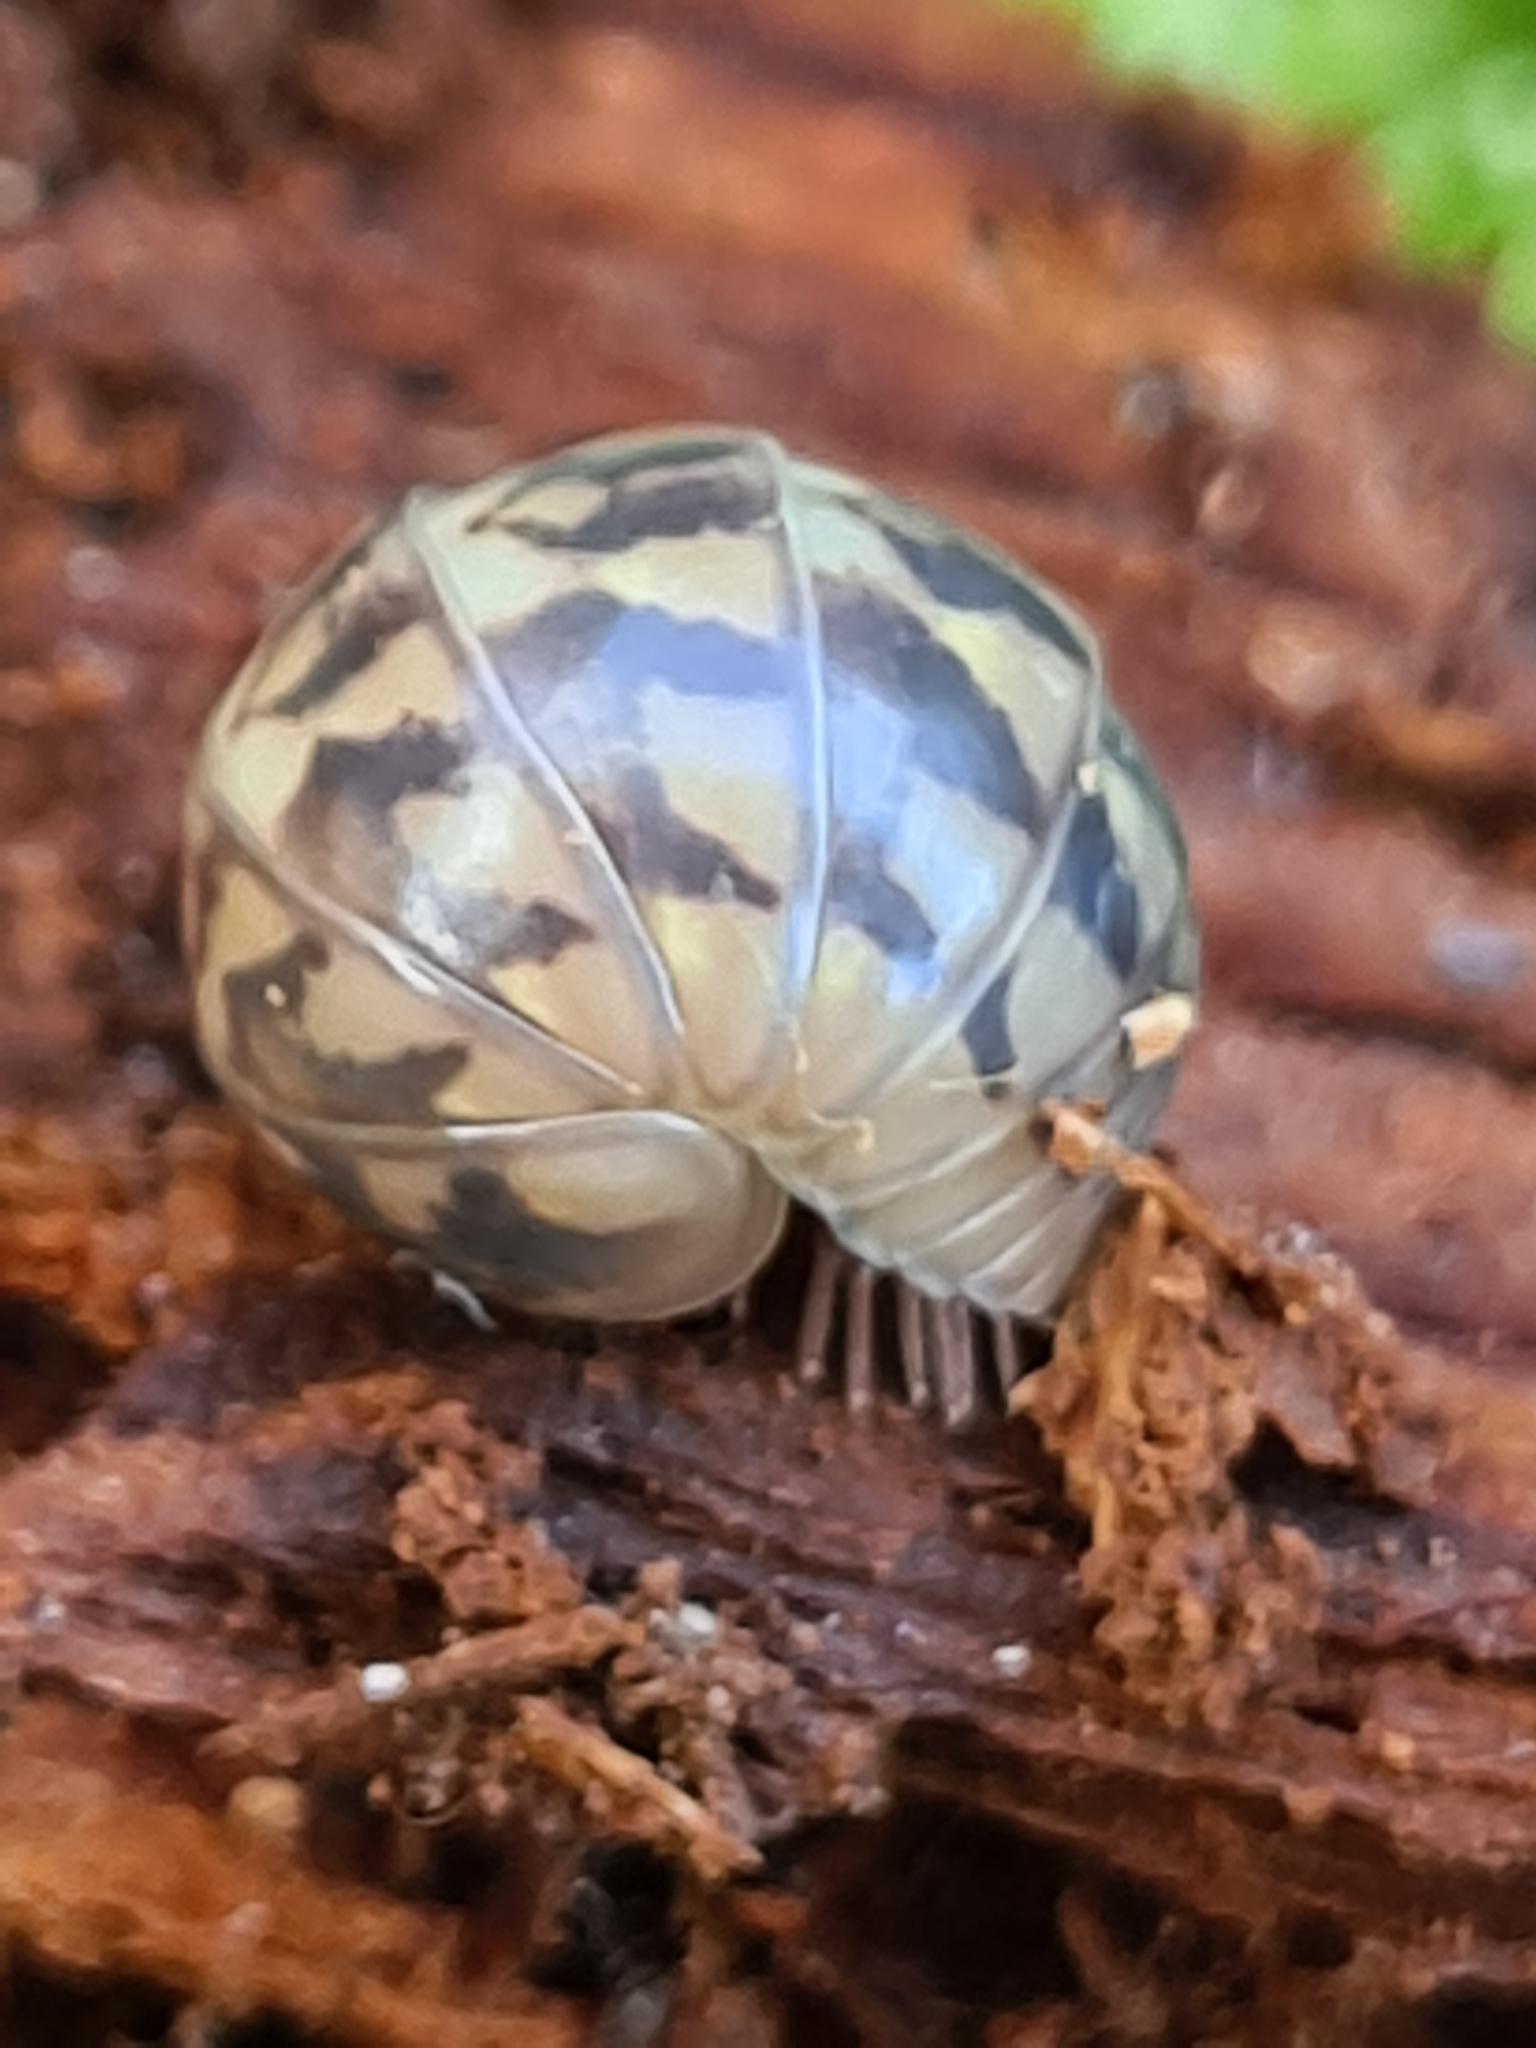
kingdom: Animalia
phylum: Arthropoda
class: Diplopoda
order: Glomerida
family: Glomeridae
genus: Glomeris
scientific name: Glomeris hexasticha
